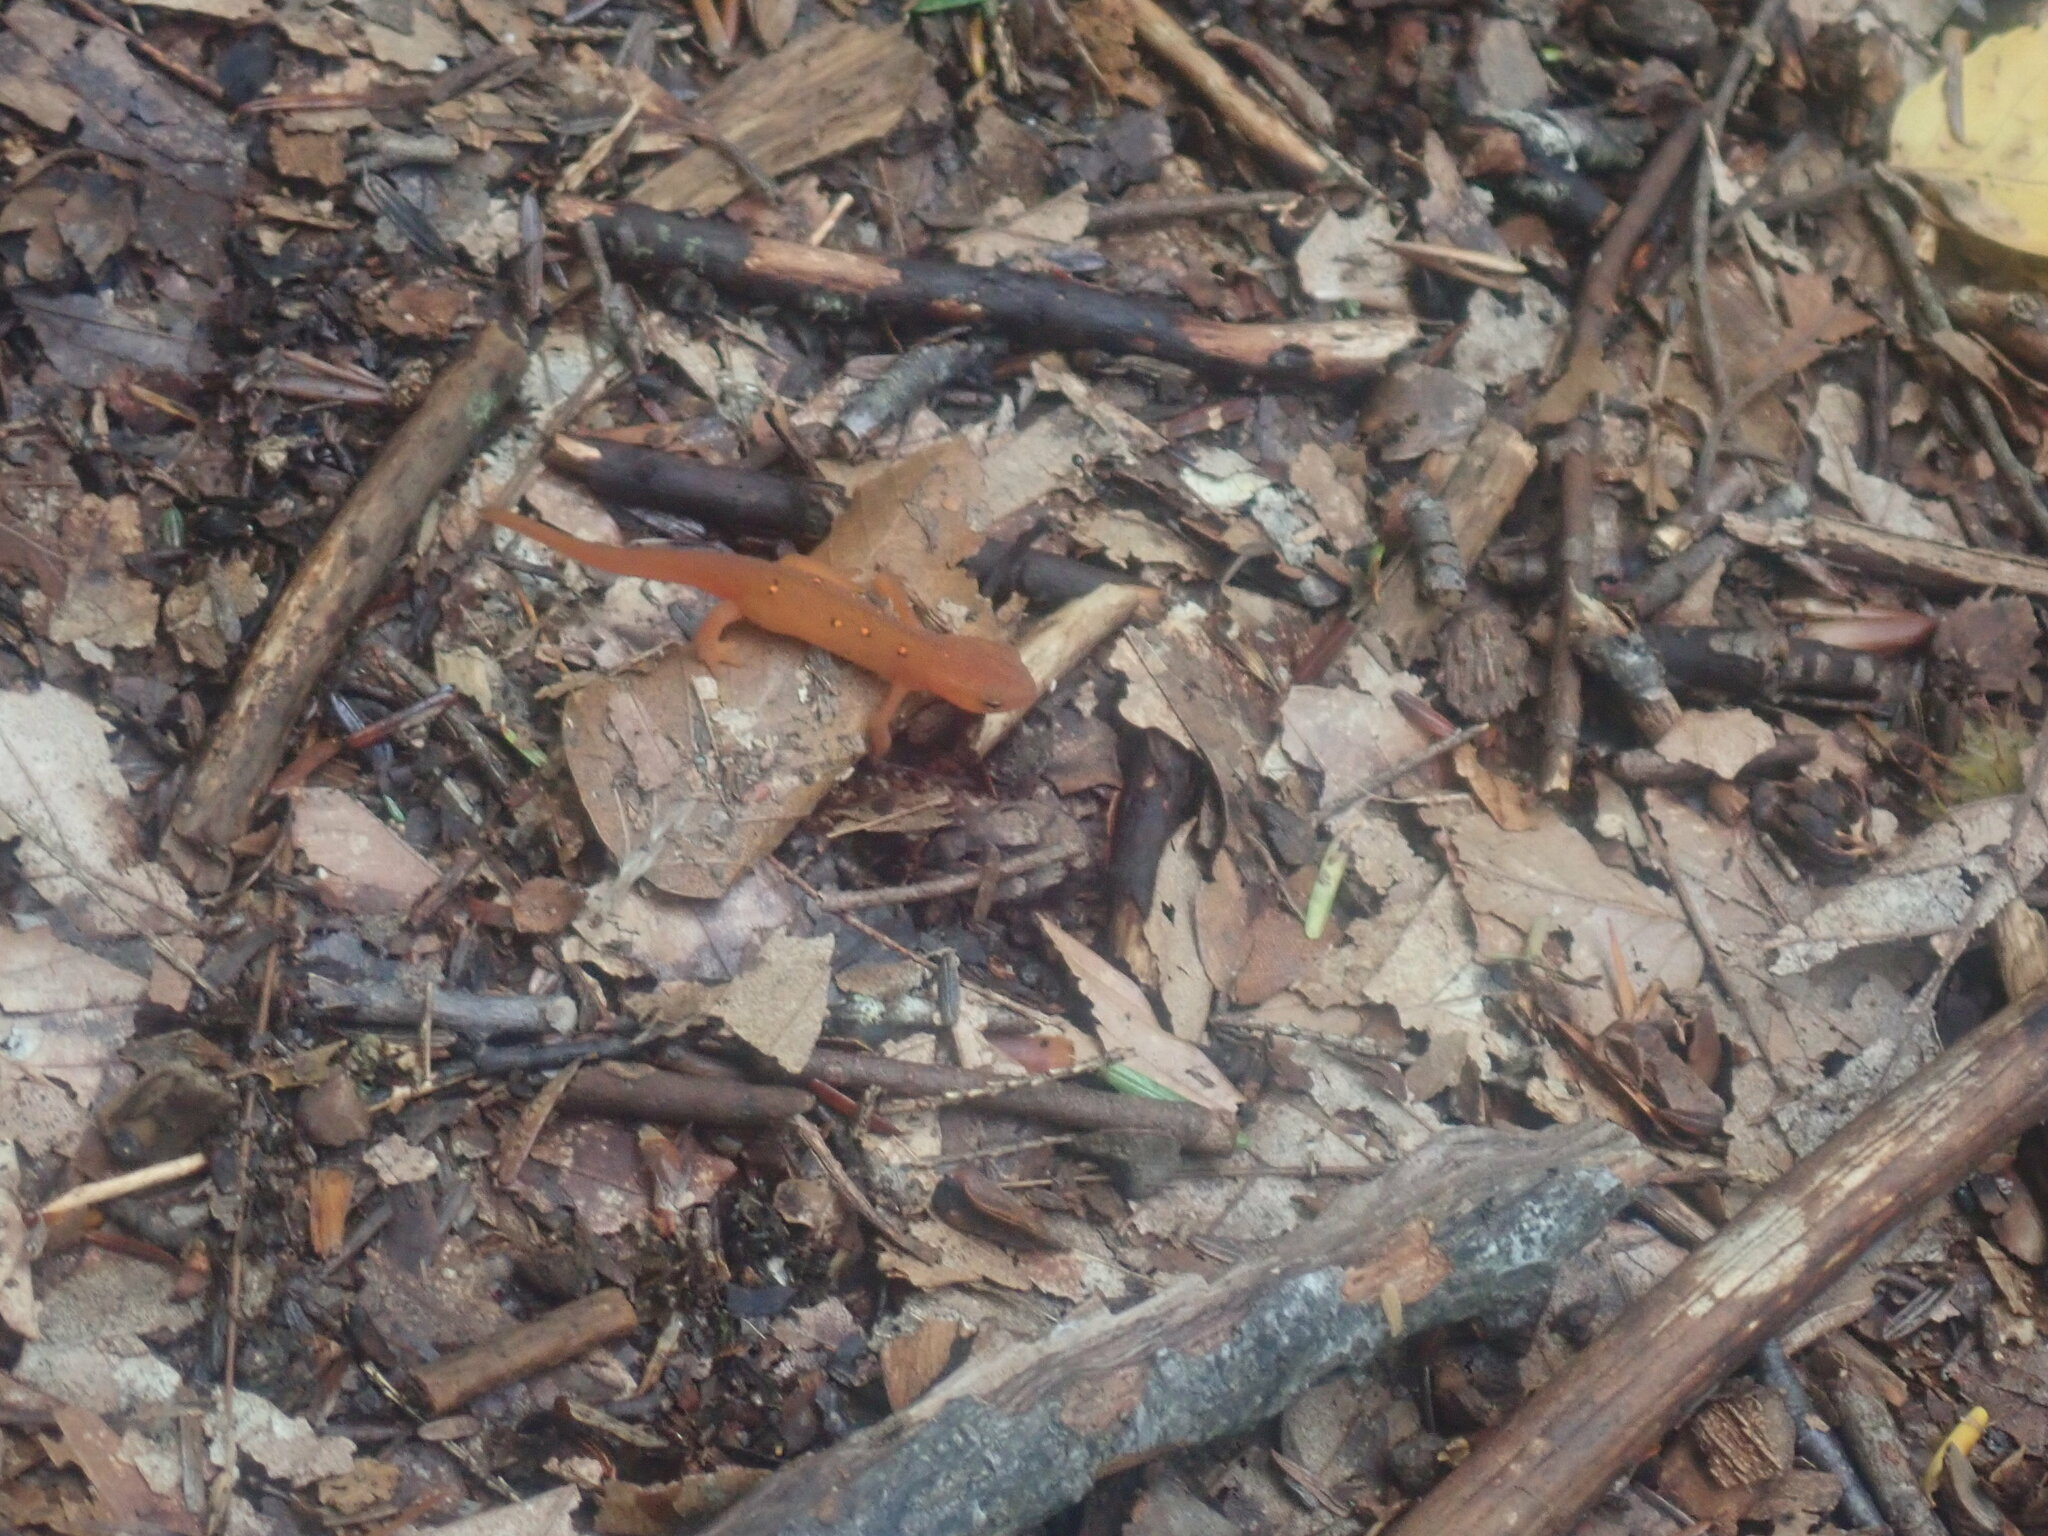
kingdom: Animalia
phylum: Chordata
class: Amphibia
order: Caudata
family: Salamandridae
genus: Notophthalmus
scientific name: Notophthalmus viridescens
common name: Eastern newt
